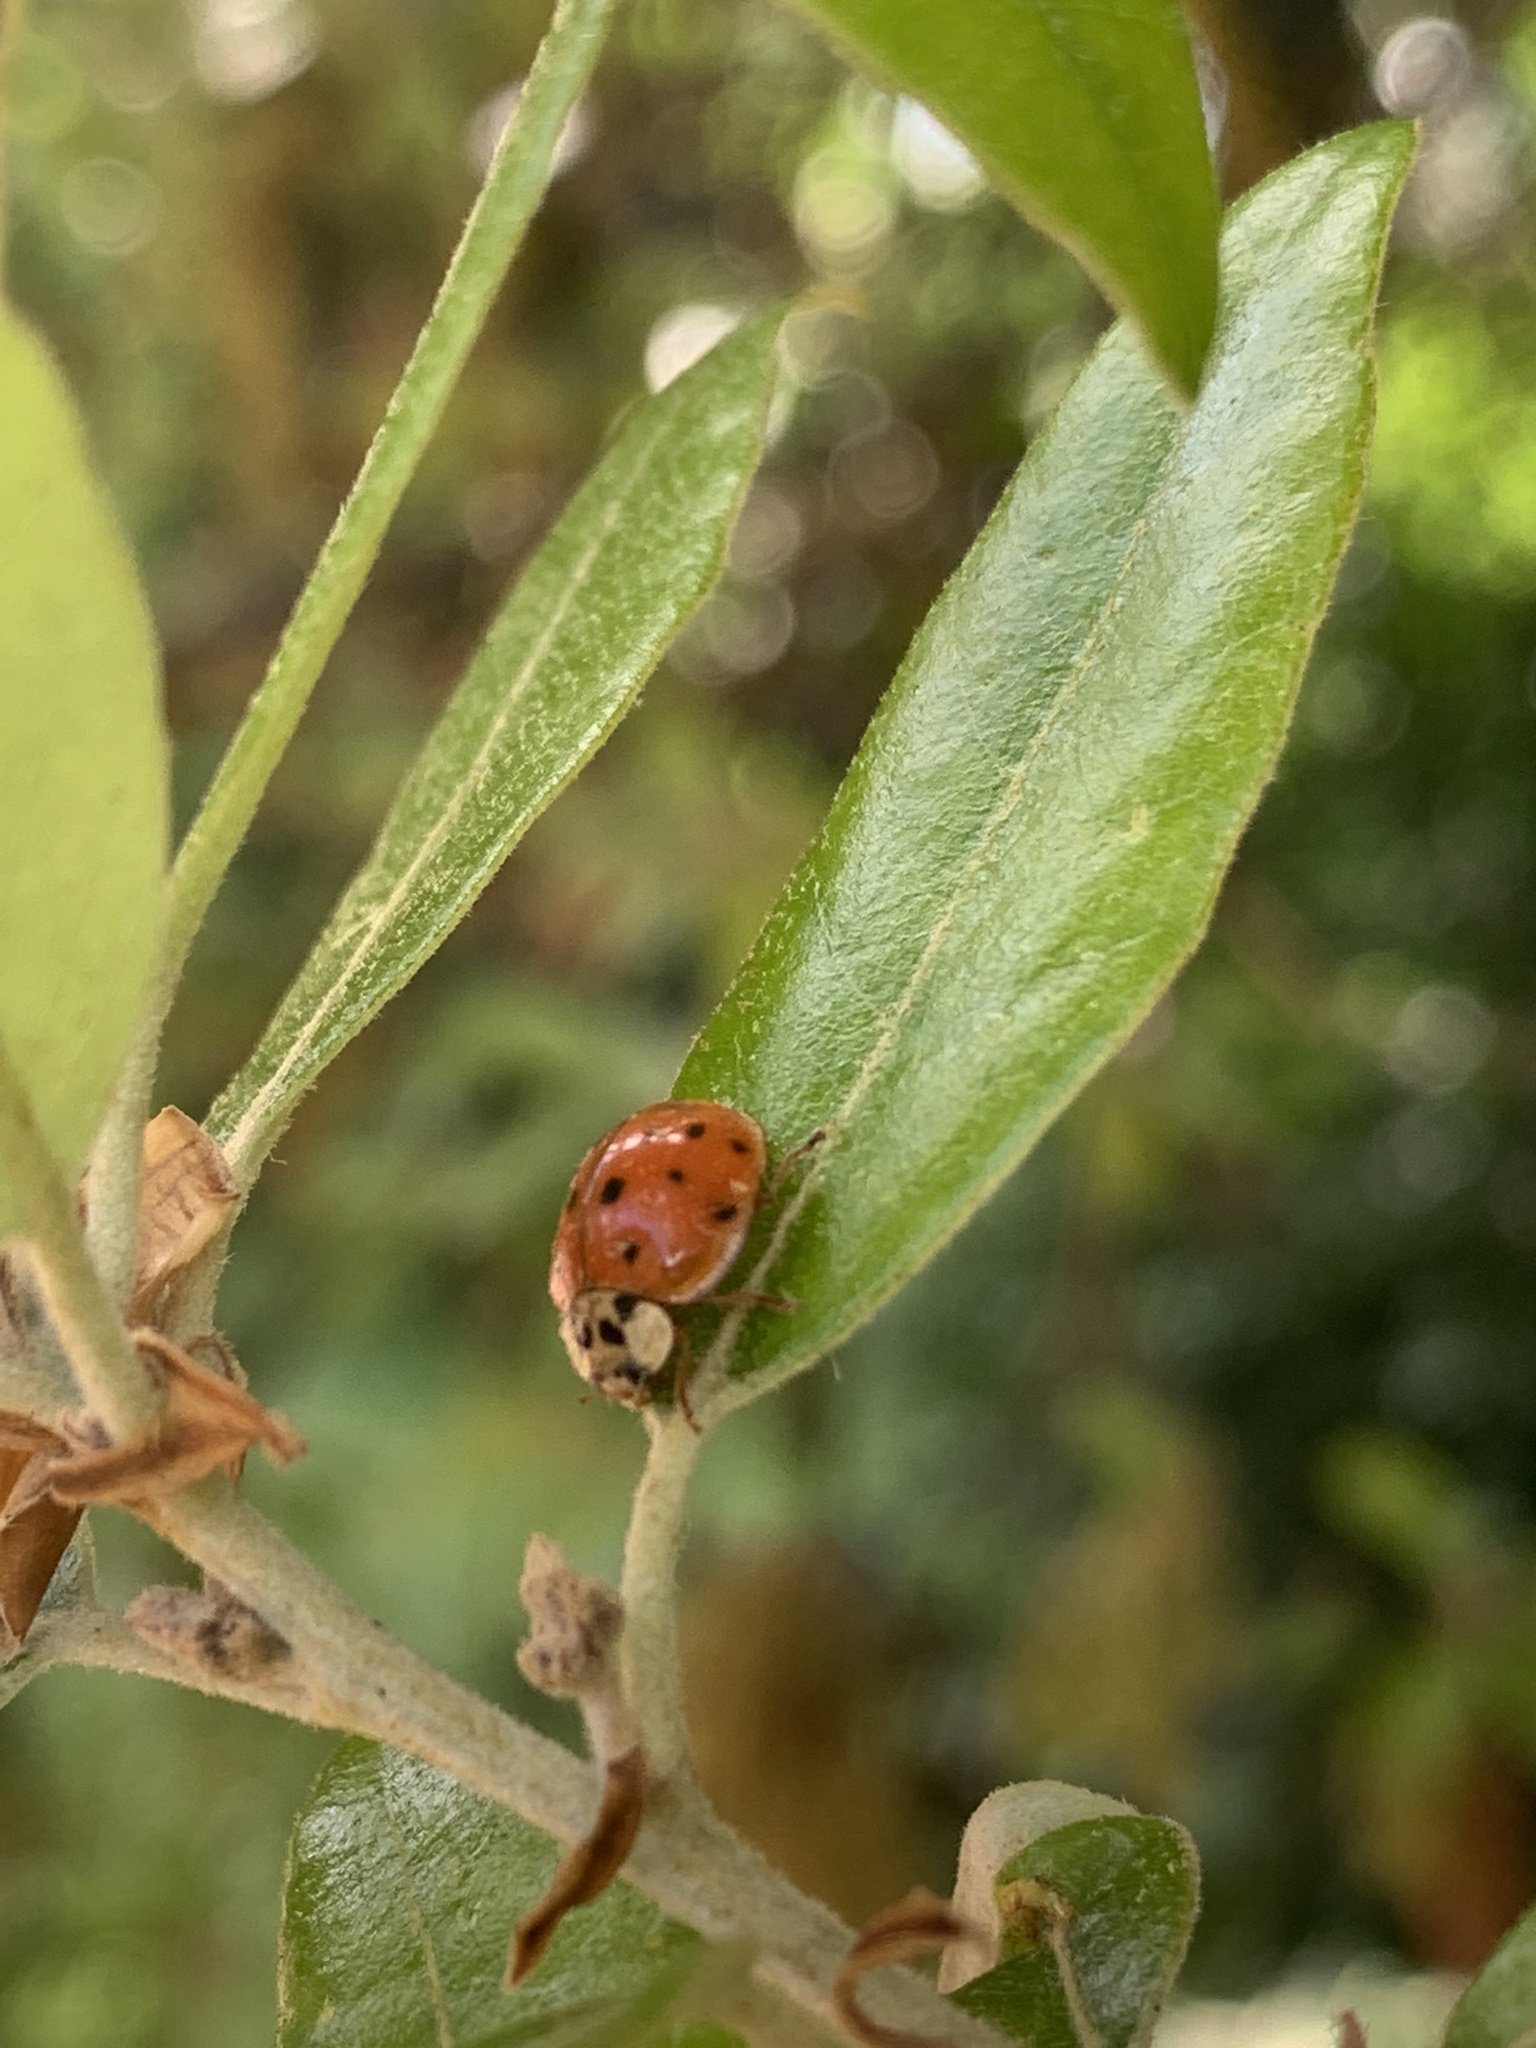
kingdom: Animalia
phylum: Arthropoda
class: Insecta
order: Coleoptera
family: Coccinellidae
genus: Harmonia
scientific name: Harmonia axyridis
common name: Harlequin ladybird
